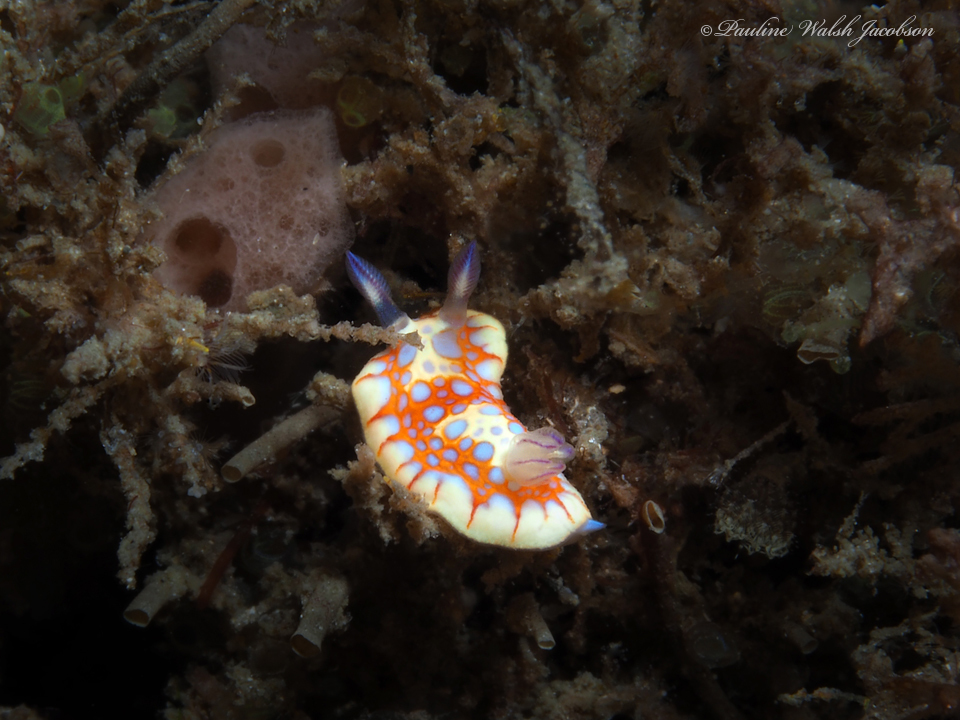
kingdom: Animalia
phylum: Mollusca
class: Gastropoda
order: Nudibranchia
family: Chromodorididae
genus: Felimida
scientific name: Felimida binza
